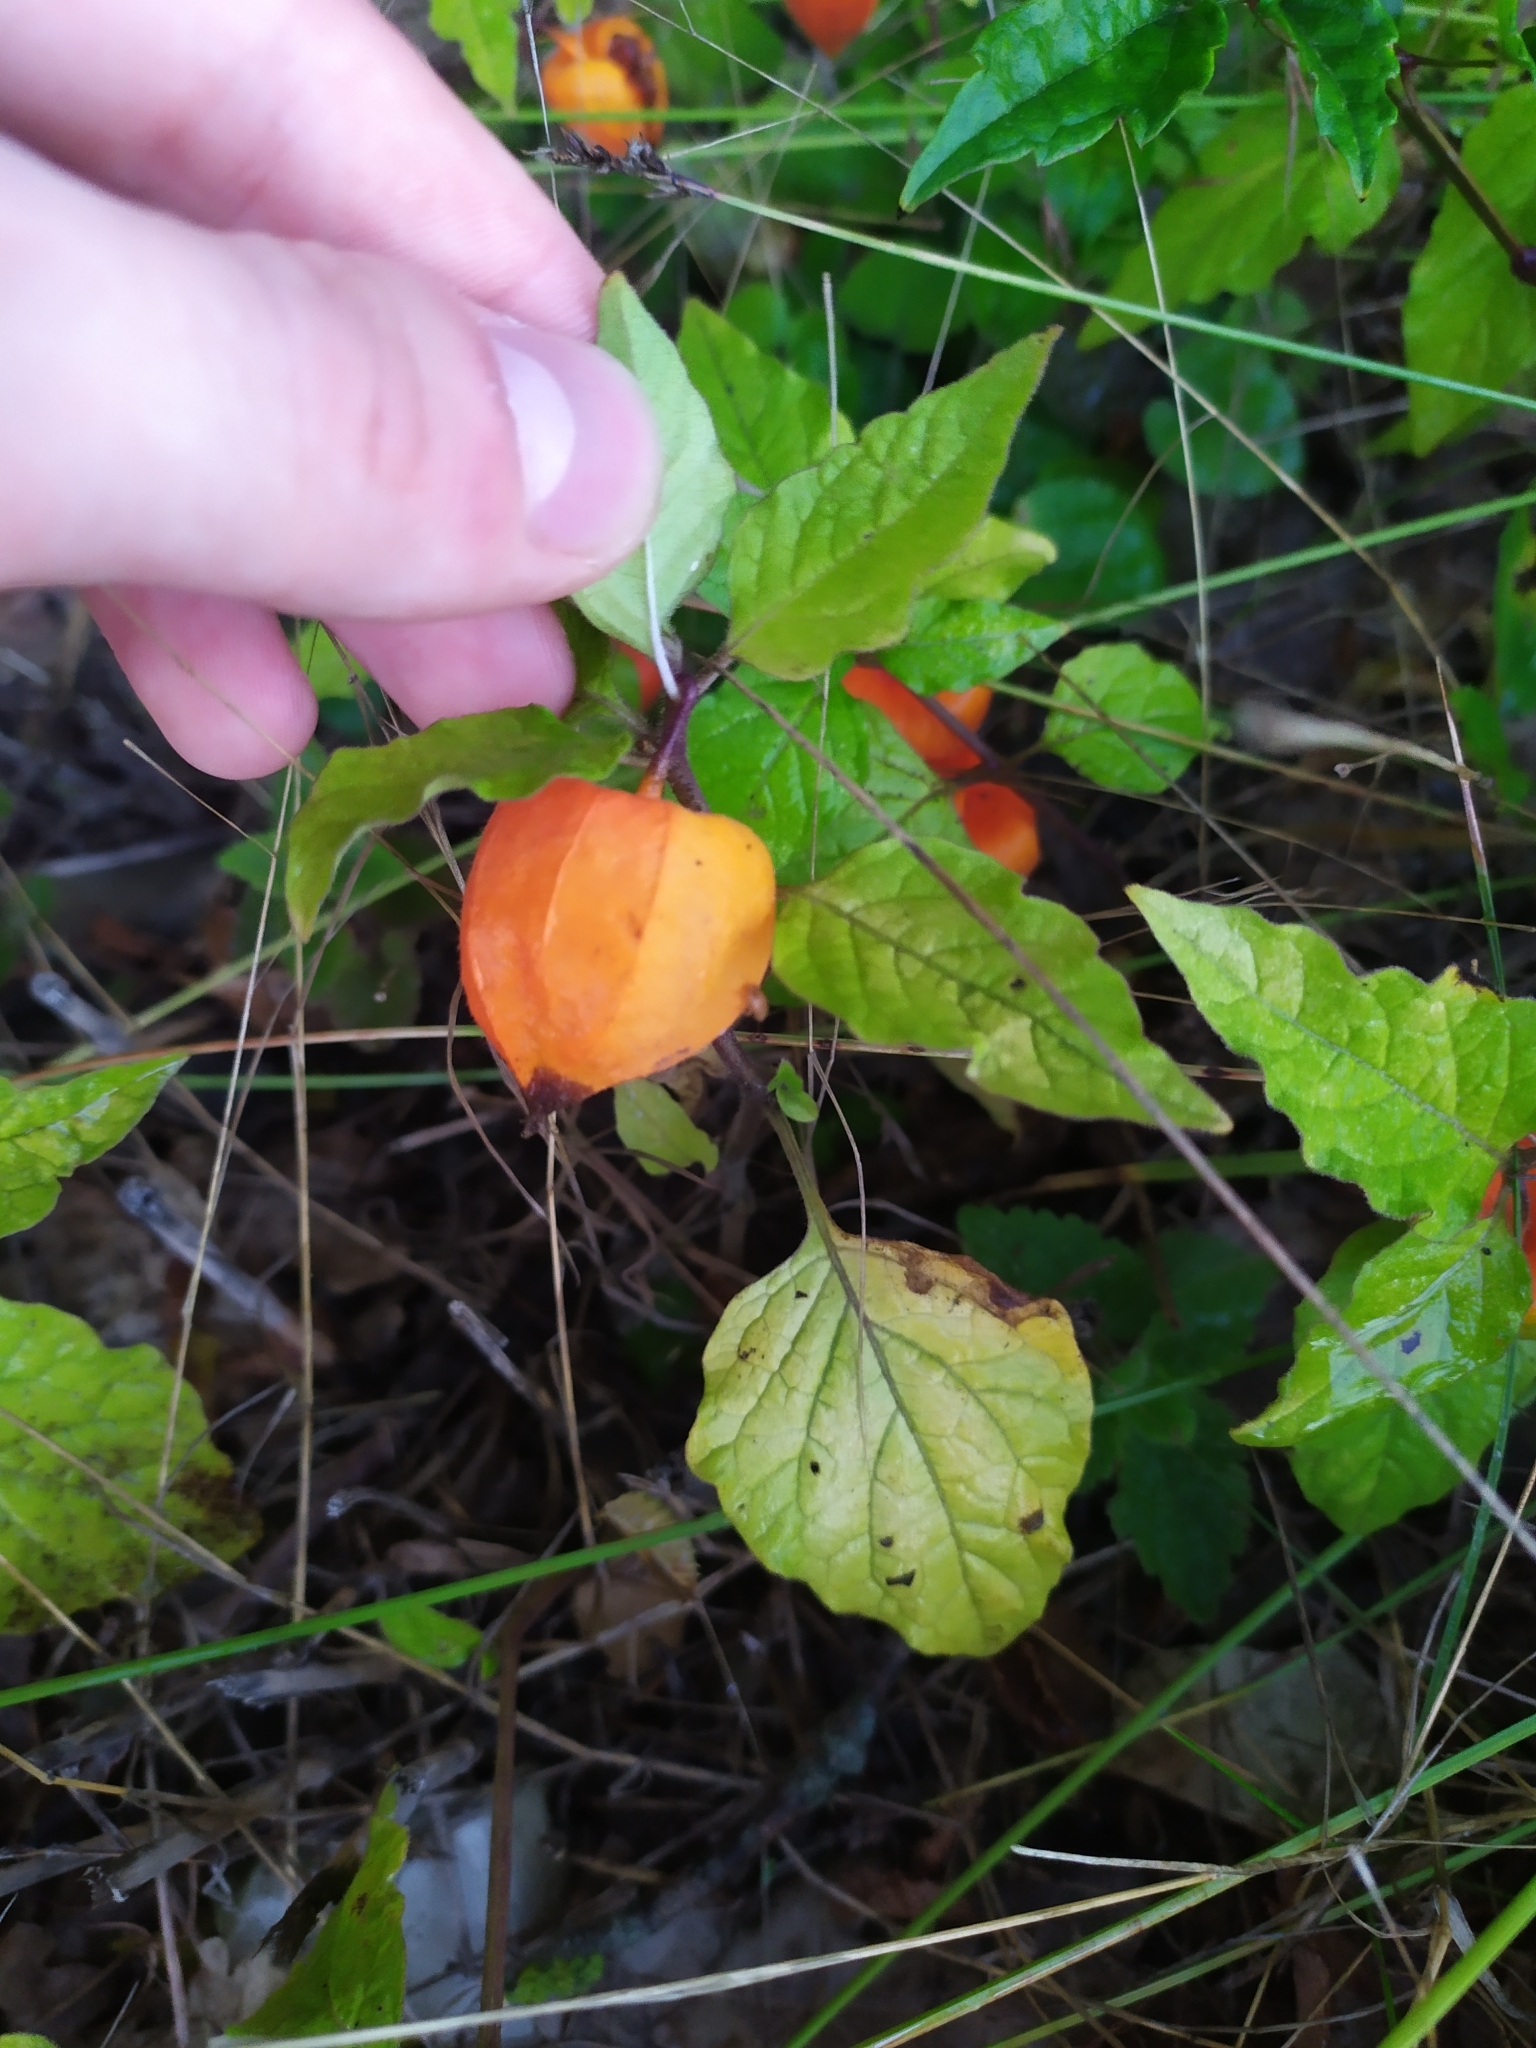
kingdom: Plantae
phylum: Tracheophyta
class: Magnoliopsida
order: Solanales
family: Solanaceae
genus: Alkekengi
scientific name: Alkekengi officinarum
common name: Japanese-lantern
